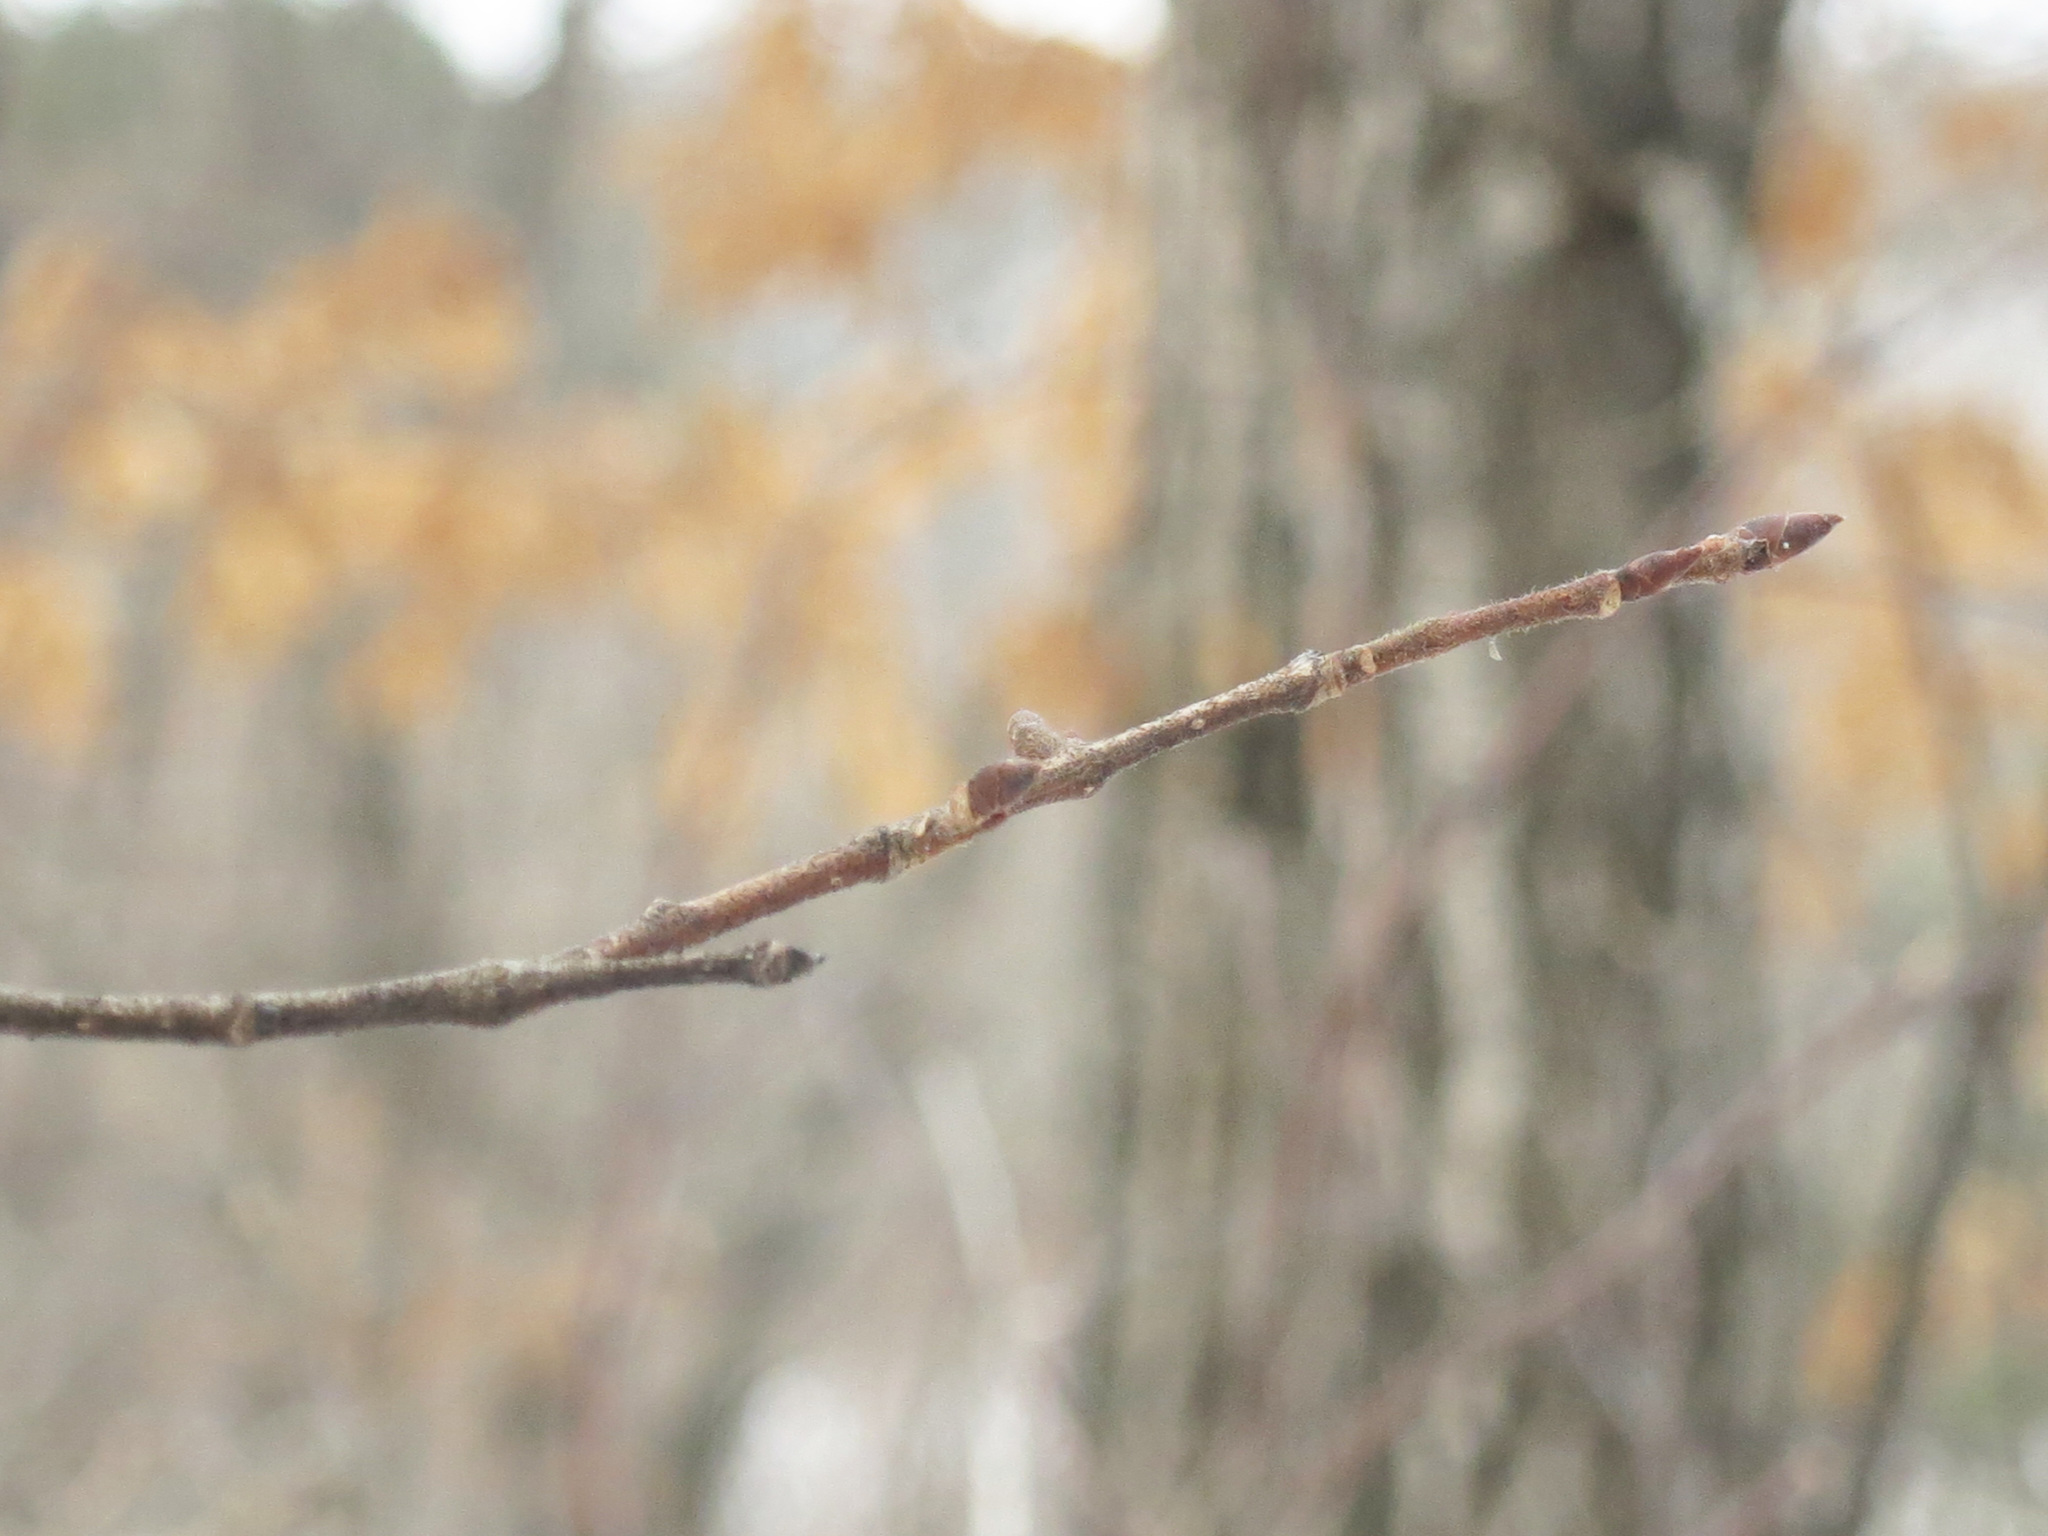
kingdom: Plantae
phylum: Tracheophyta
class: Magnoliopsida
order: Rosales
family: Rosaceae
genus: Prunus
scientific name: Prunus maximowiczii
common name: Korean cherry
